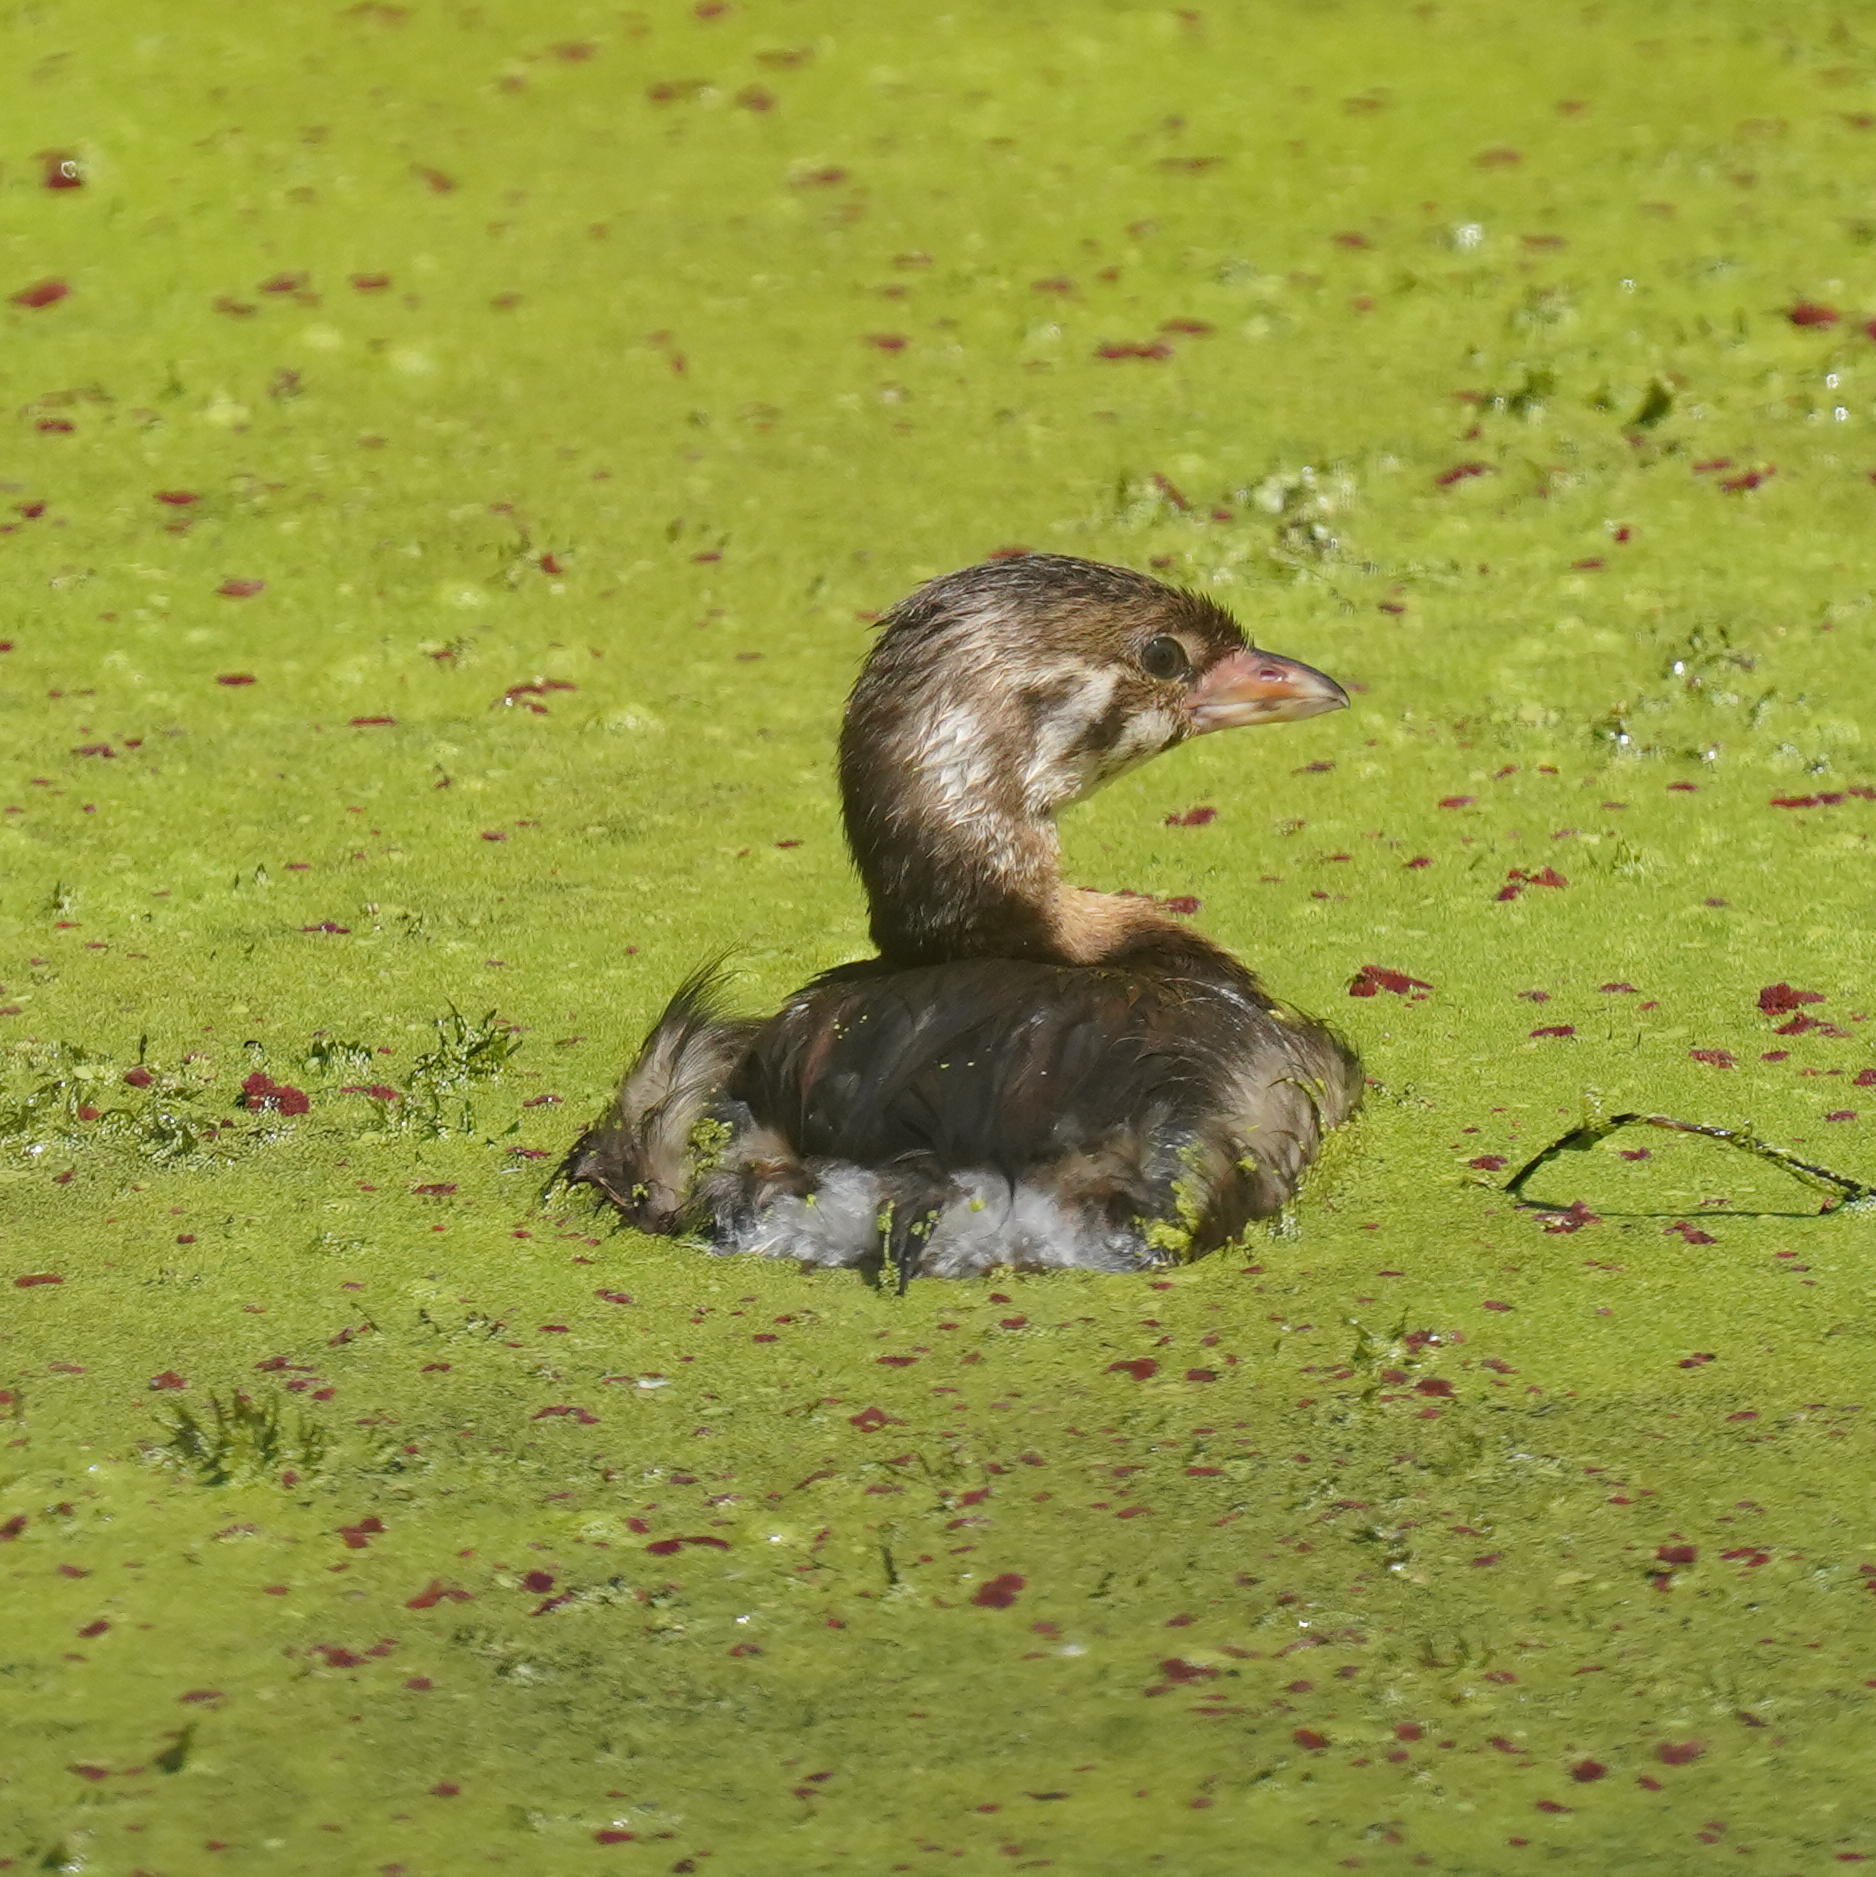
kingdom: Animalia
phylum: Chordata
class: Aves
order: Podicipediformes
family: Podicipedidae
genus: Podilymbus
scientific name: Podilymbus podiceps
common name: Pied-billed grebe
